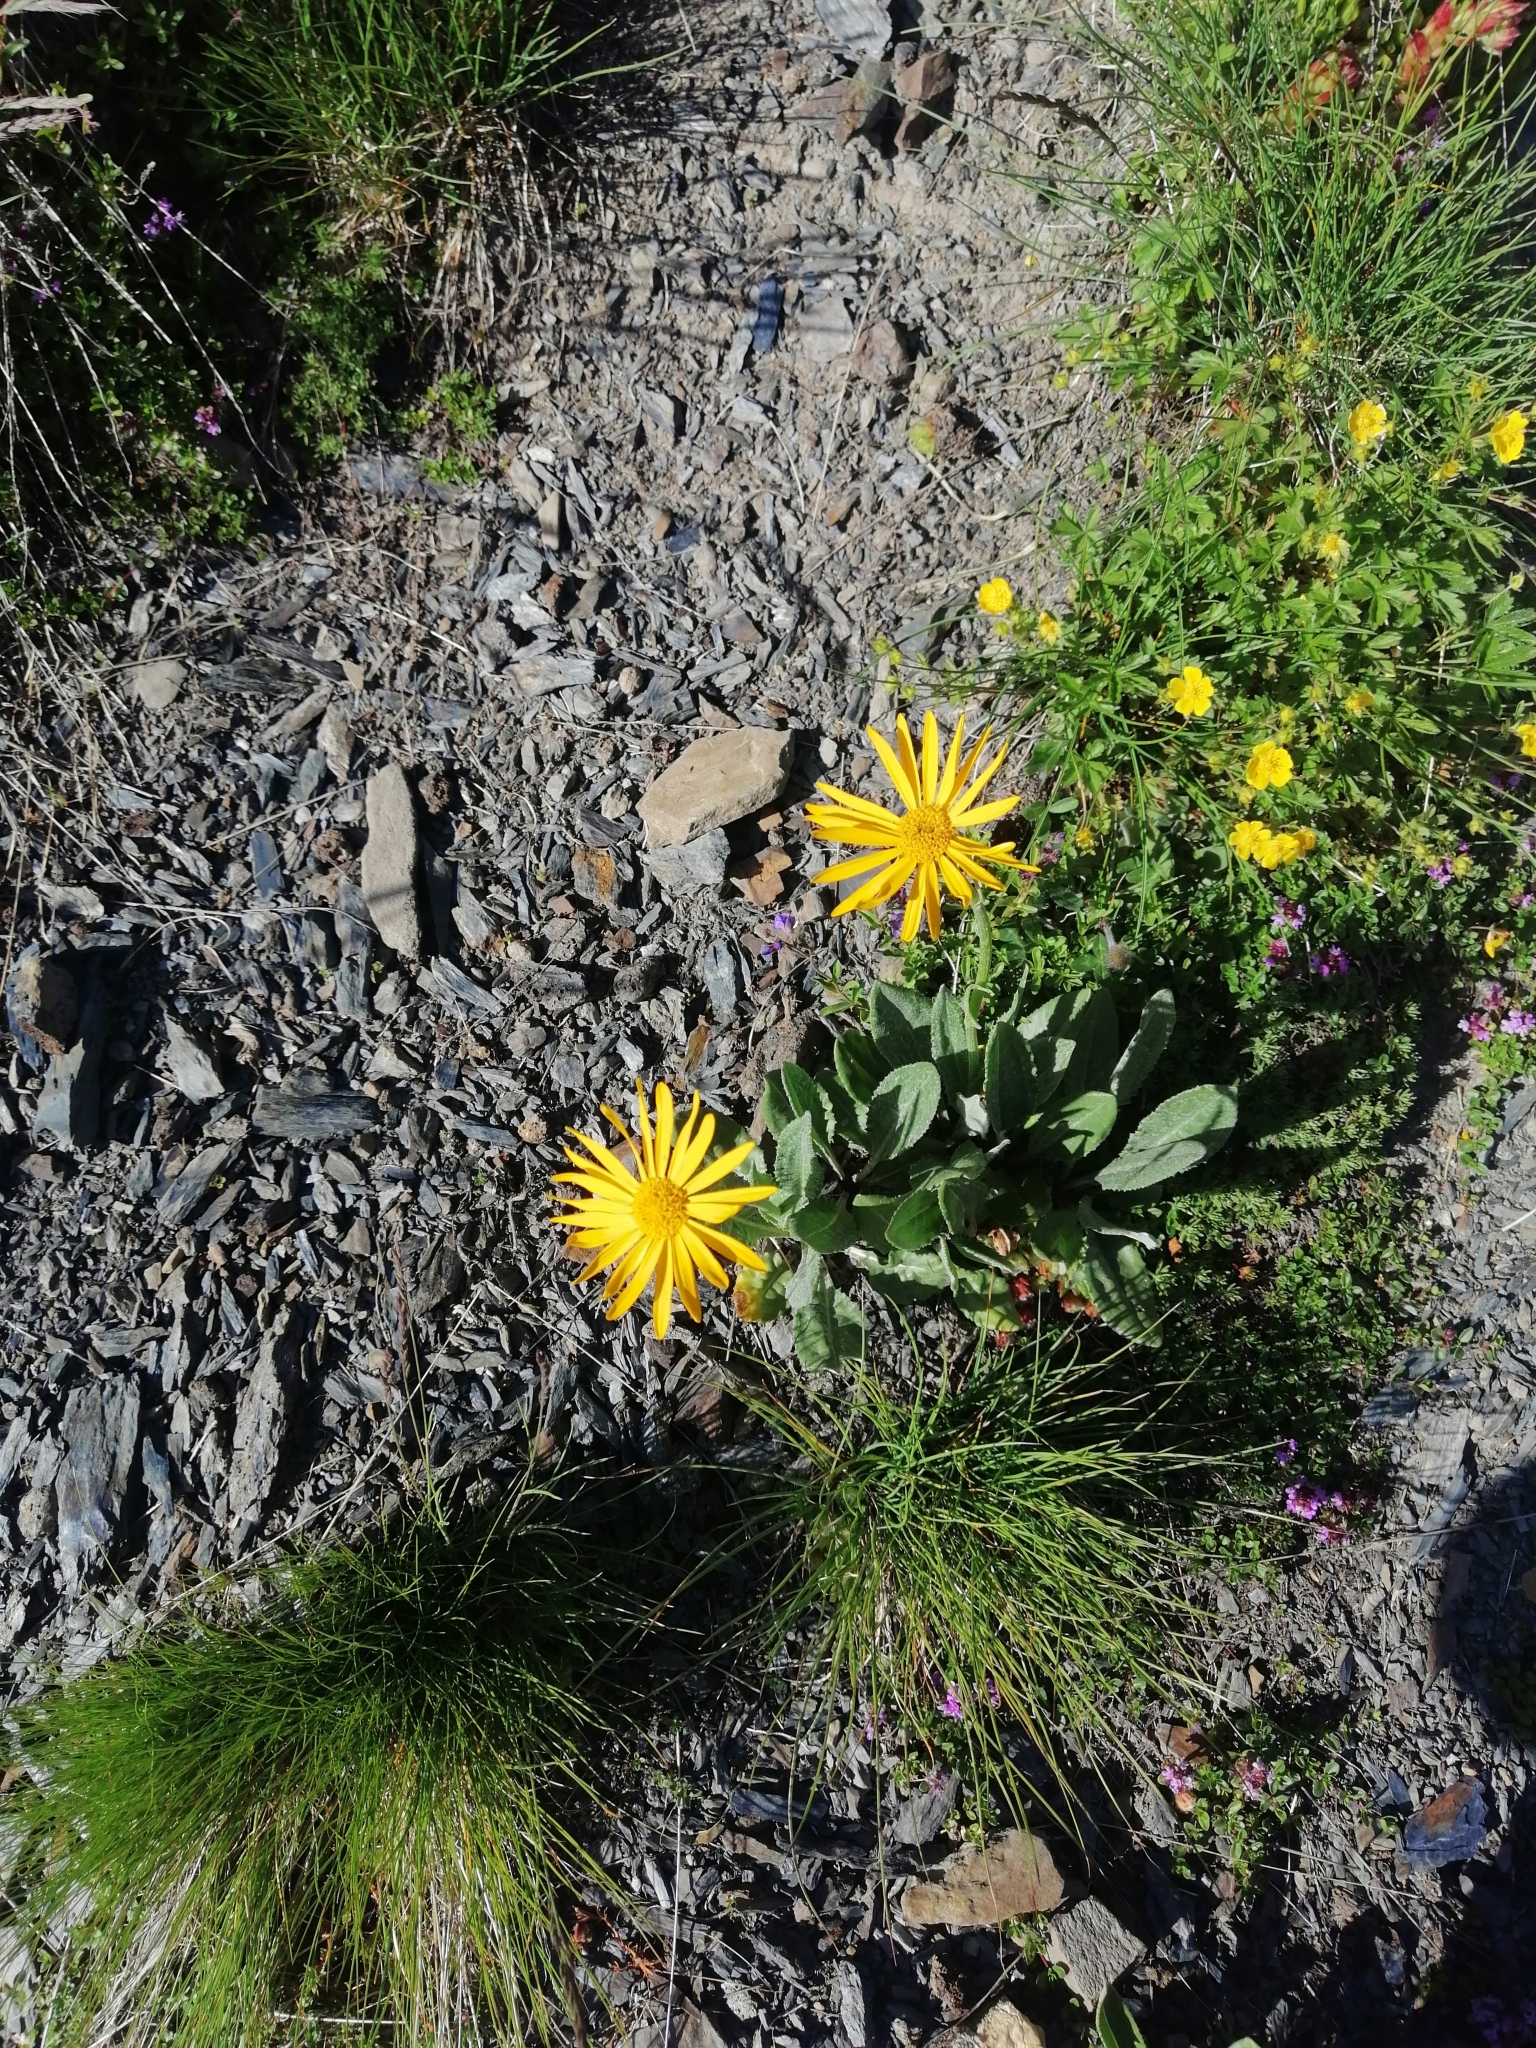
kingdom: Plantae
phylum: Tracheophyta
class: Magnoliopsida
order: Asterales
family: Asteraceae
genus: Senecio
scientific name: Senecio doronicum
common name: Chamois ragwort
